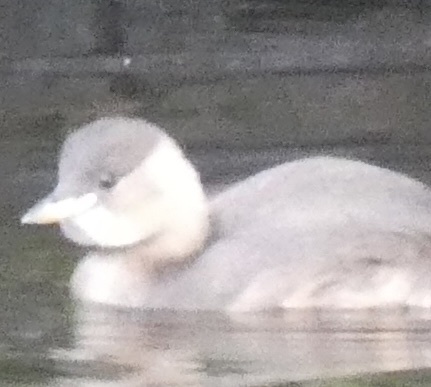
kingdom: Animalia
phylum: Chordata
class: Aves
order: Podicipediformes
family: Podicipedidae
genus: Tachybaptus
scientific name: Tachybaptus ruficollis
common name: Little grebe
